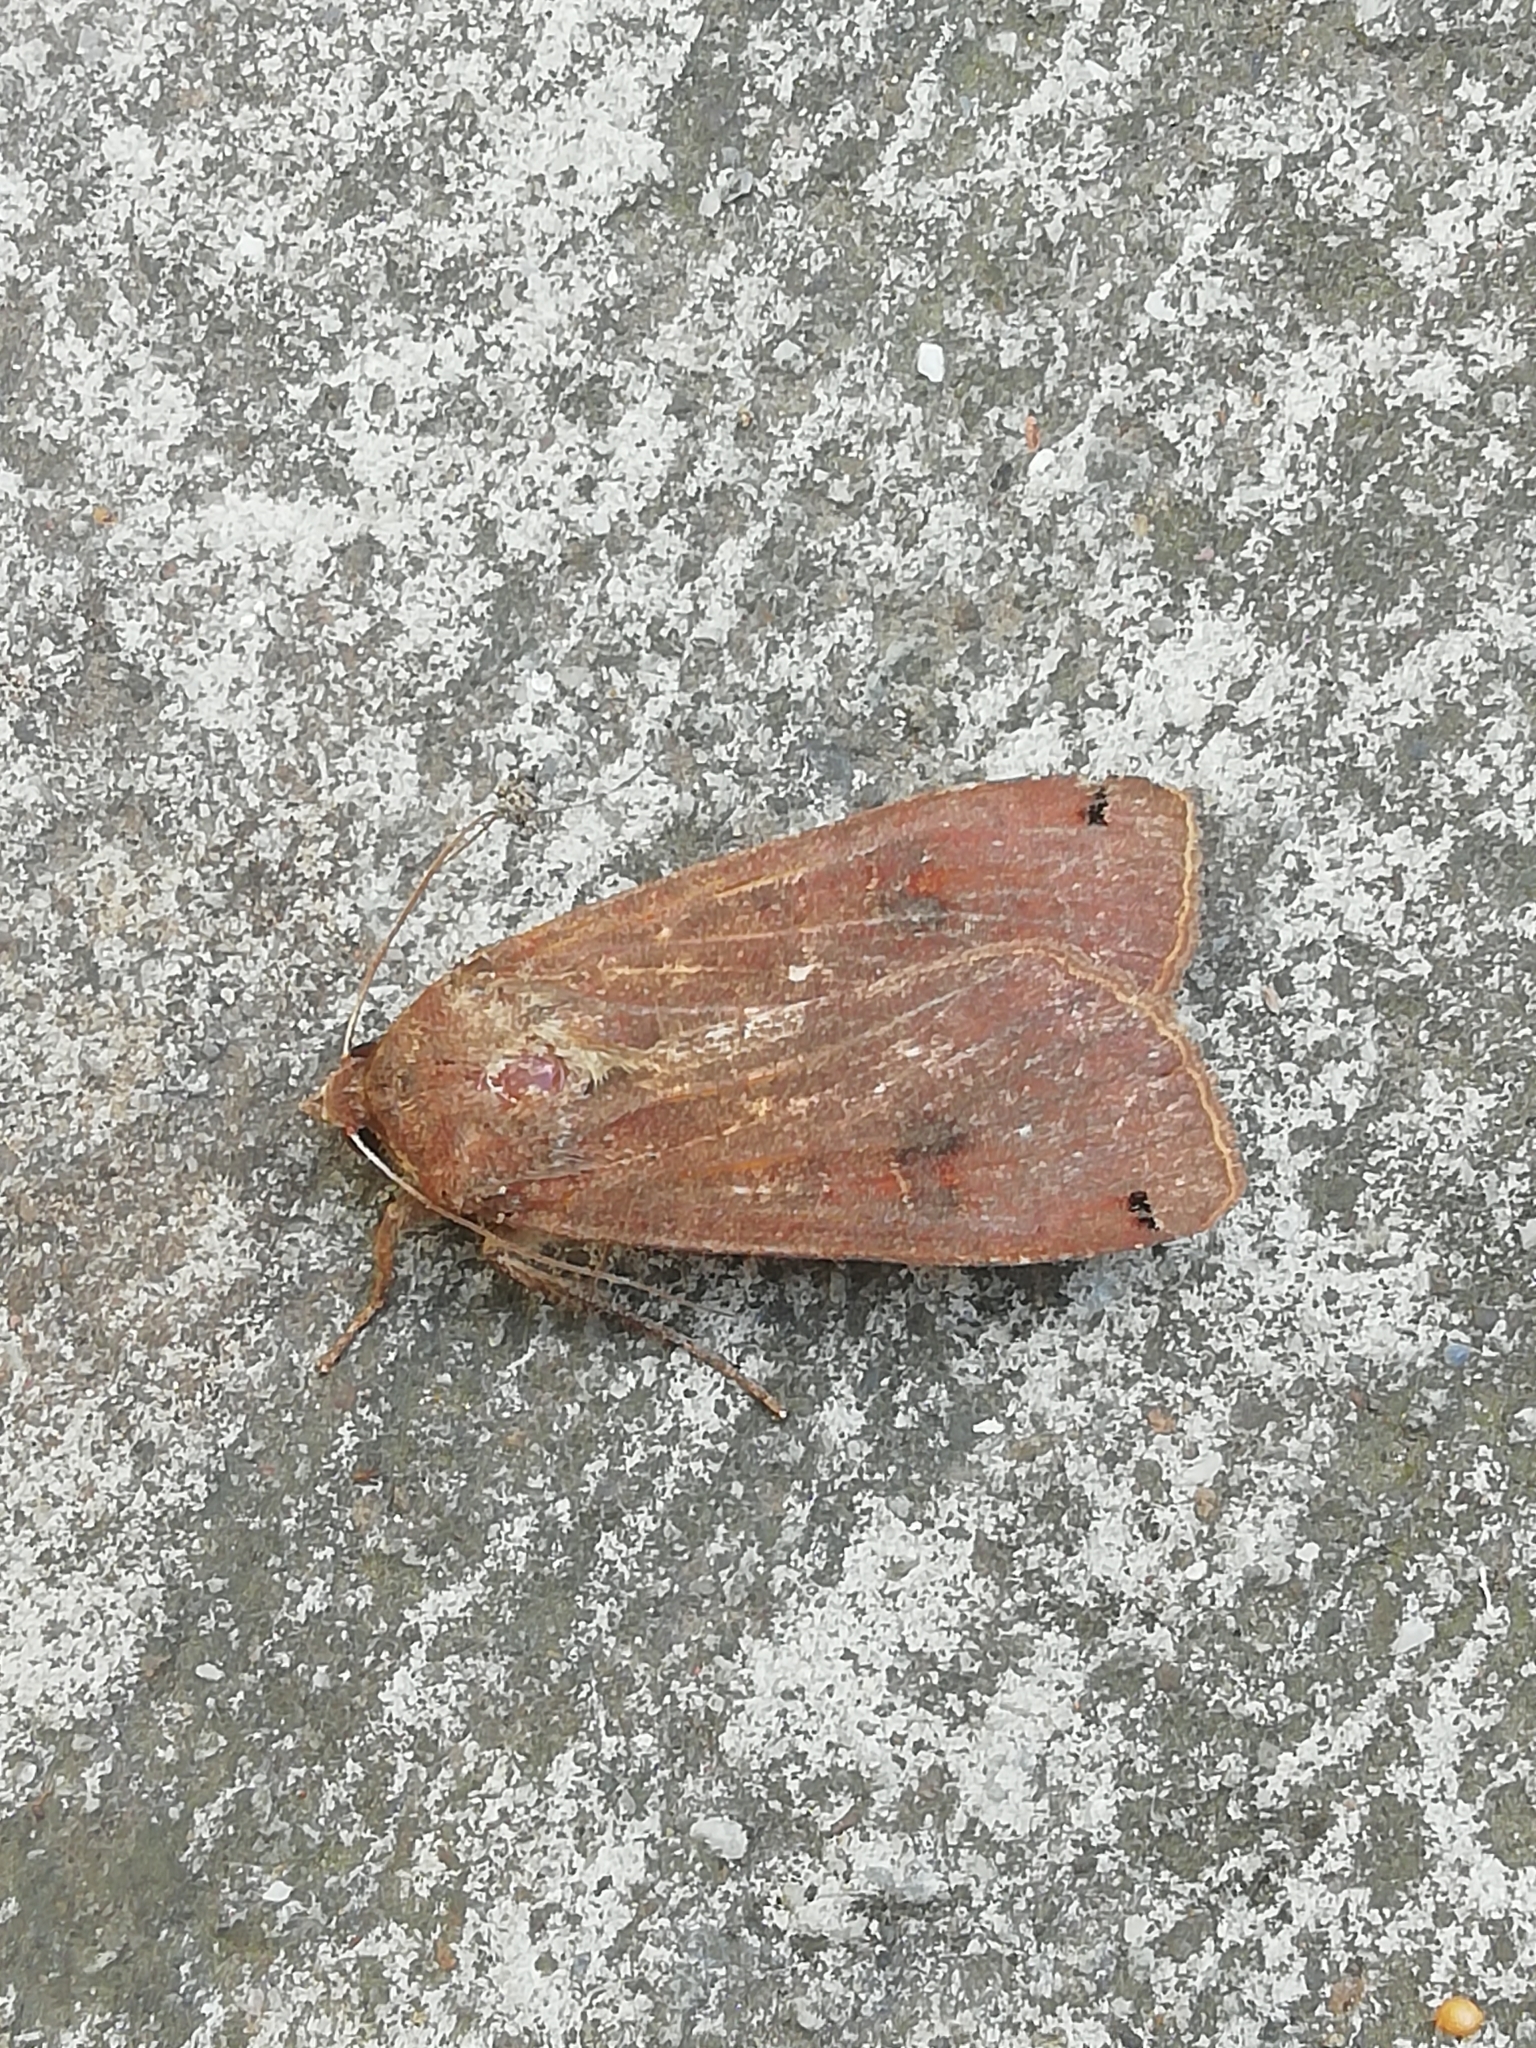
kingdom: Animalia
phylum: Arthropoda
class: Insecta
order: Lepidoptera
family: Noctuidae
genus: Noctua
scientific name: Noctua pronuba
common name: Large yellow underwing
